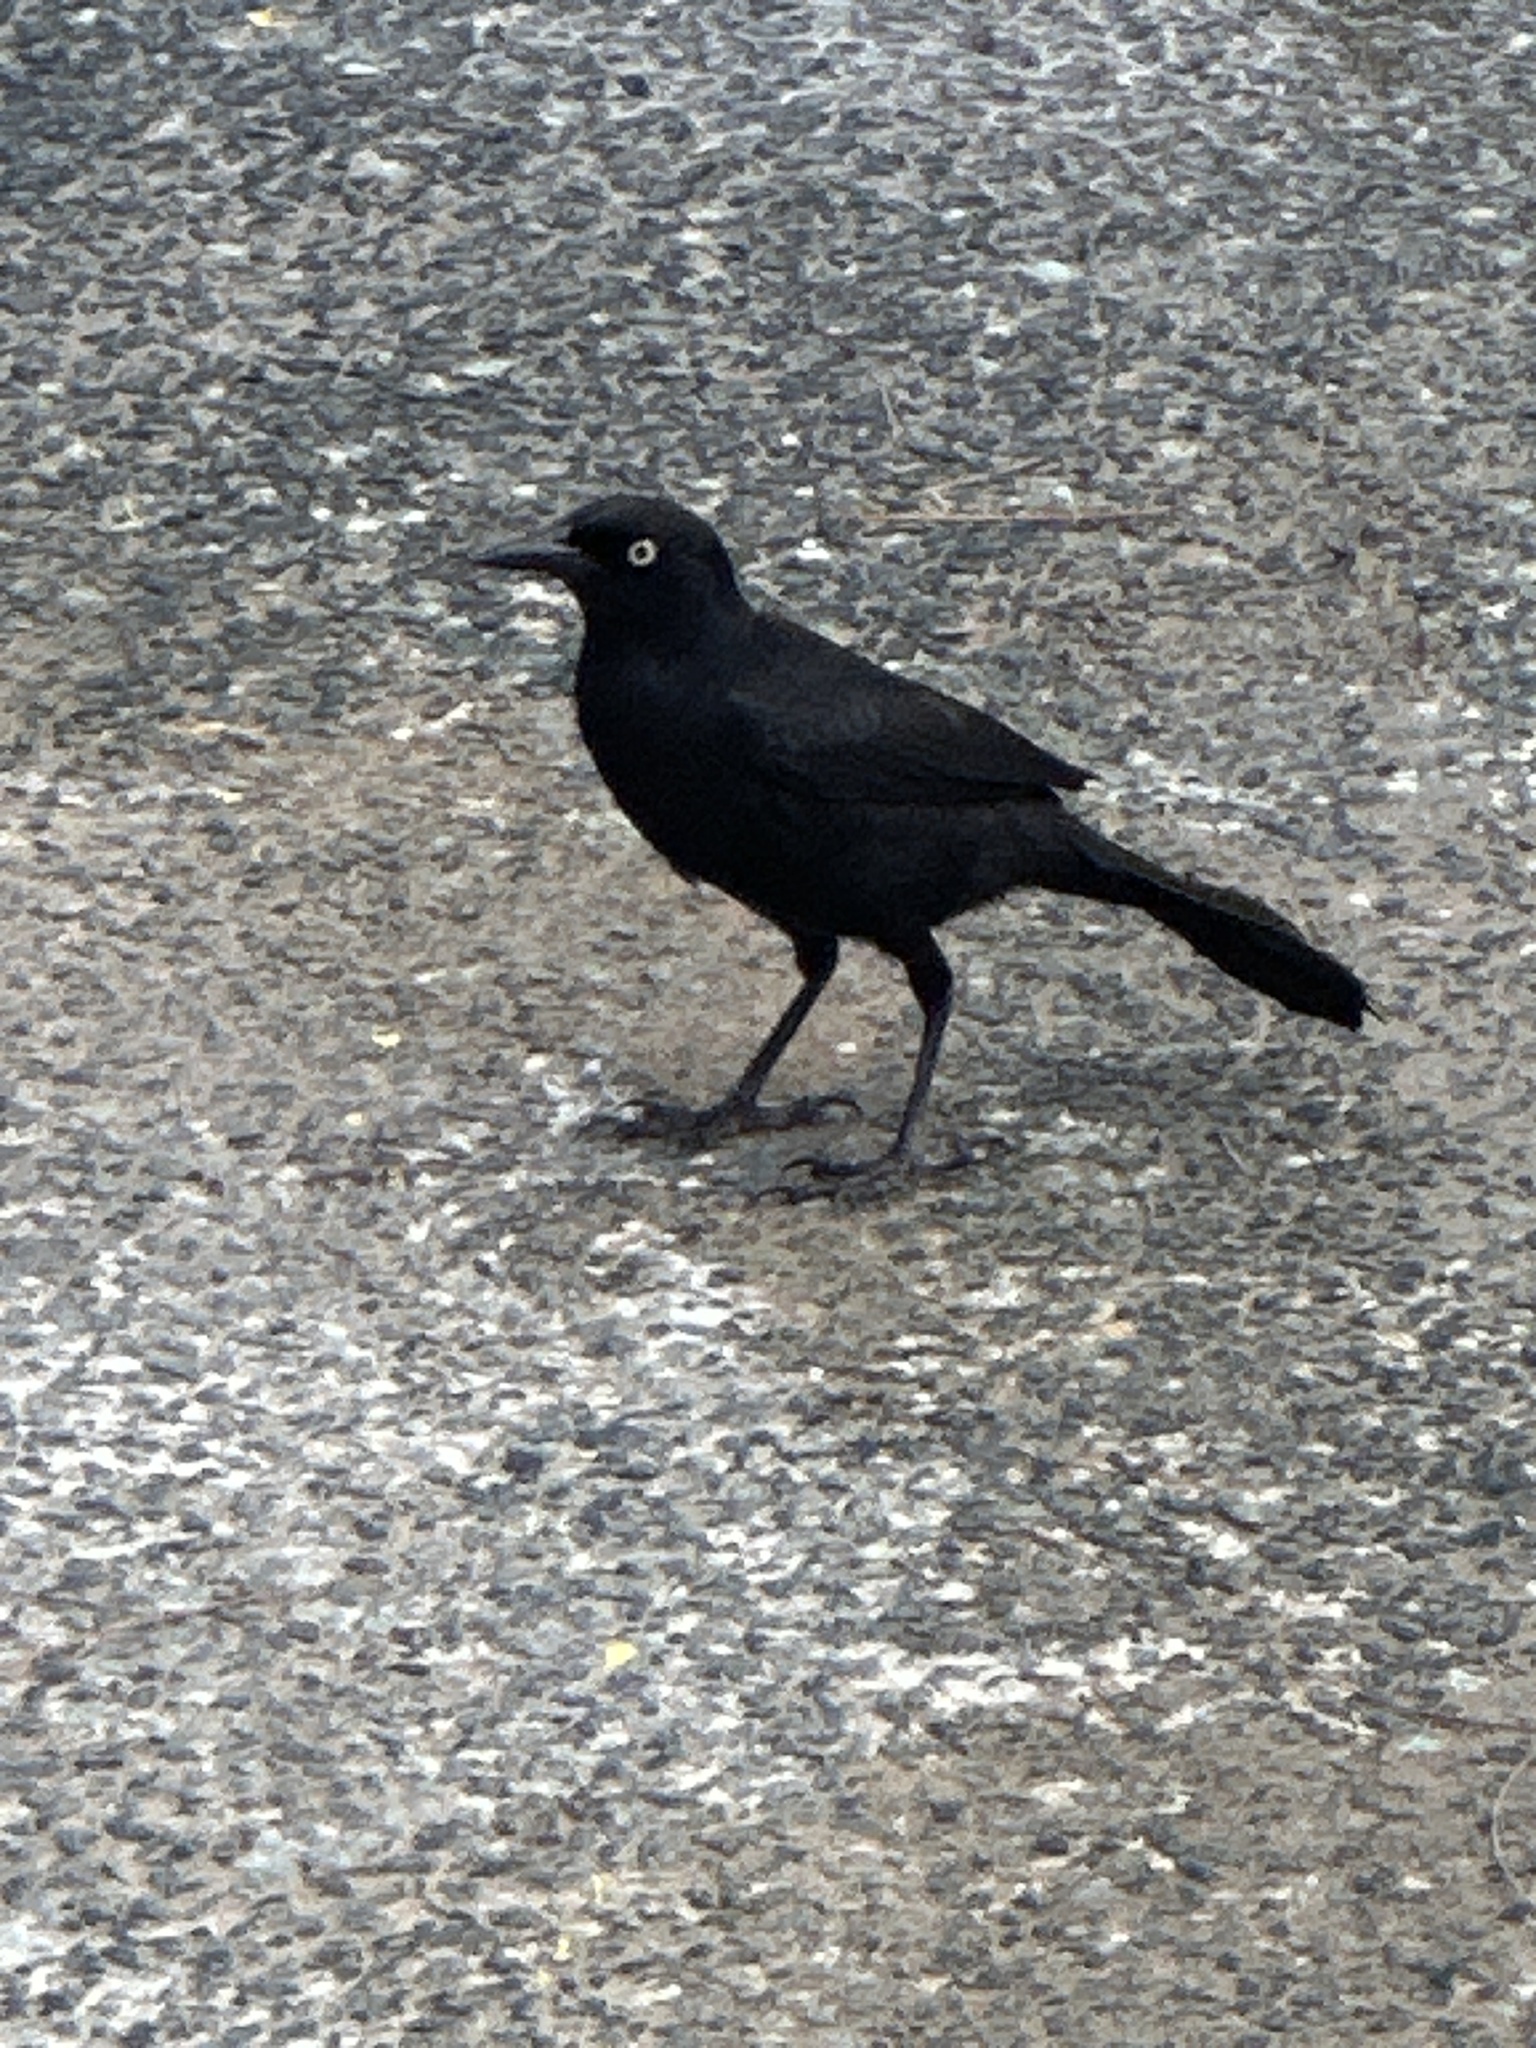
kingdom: Animalia
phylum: Chordata
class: Aves
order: Passeriformes
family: Icteridae
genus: Quiscalus
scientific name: Quiscalus niger
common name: Greater antillean grackle
